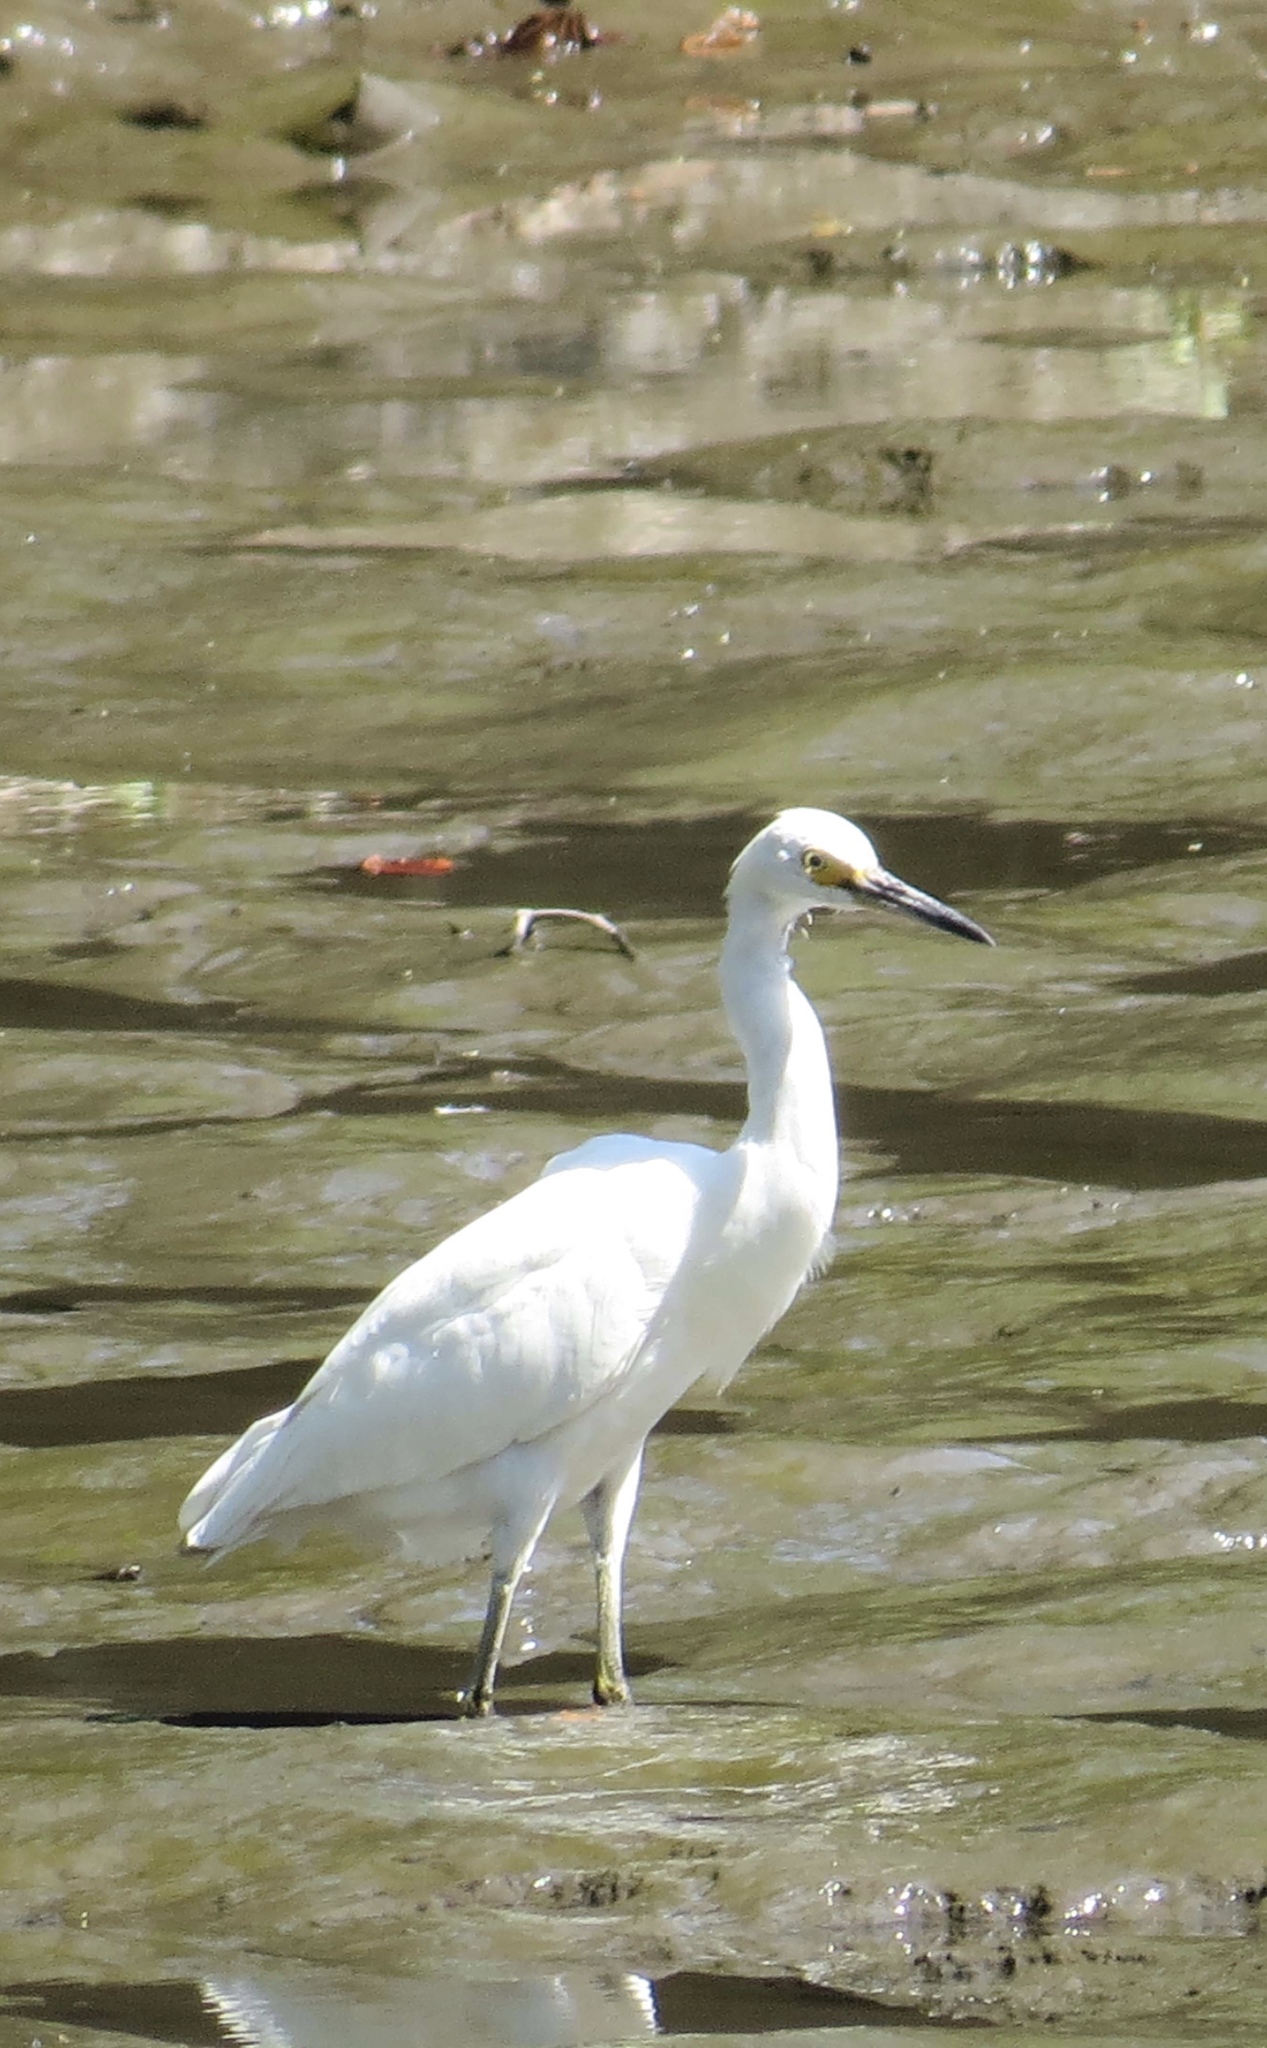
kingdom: Animalia
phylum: Chordata
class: Aves
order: Pelecaniformes
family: Ardeidae
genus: Egretta
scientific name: Egretta thula
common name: Snowy egret
